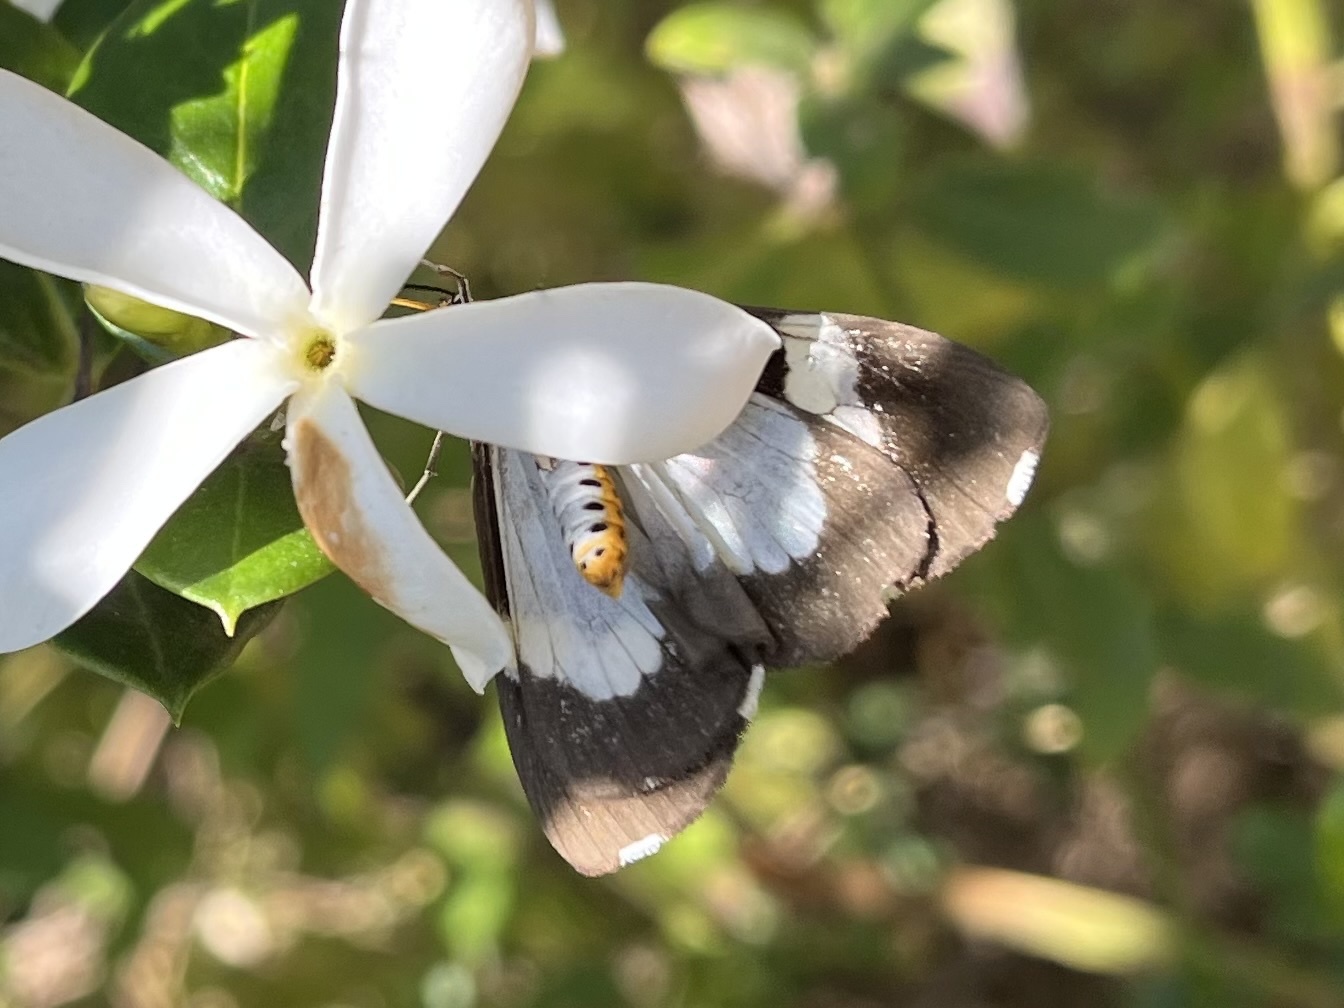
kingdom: Animalia
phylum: Arthropoda
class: Insecta
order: Lepidoptera
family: Erebidae
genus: Nyctemera
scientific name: Nyctemera
